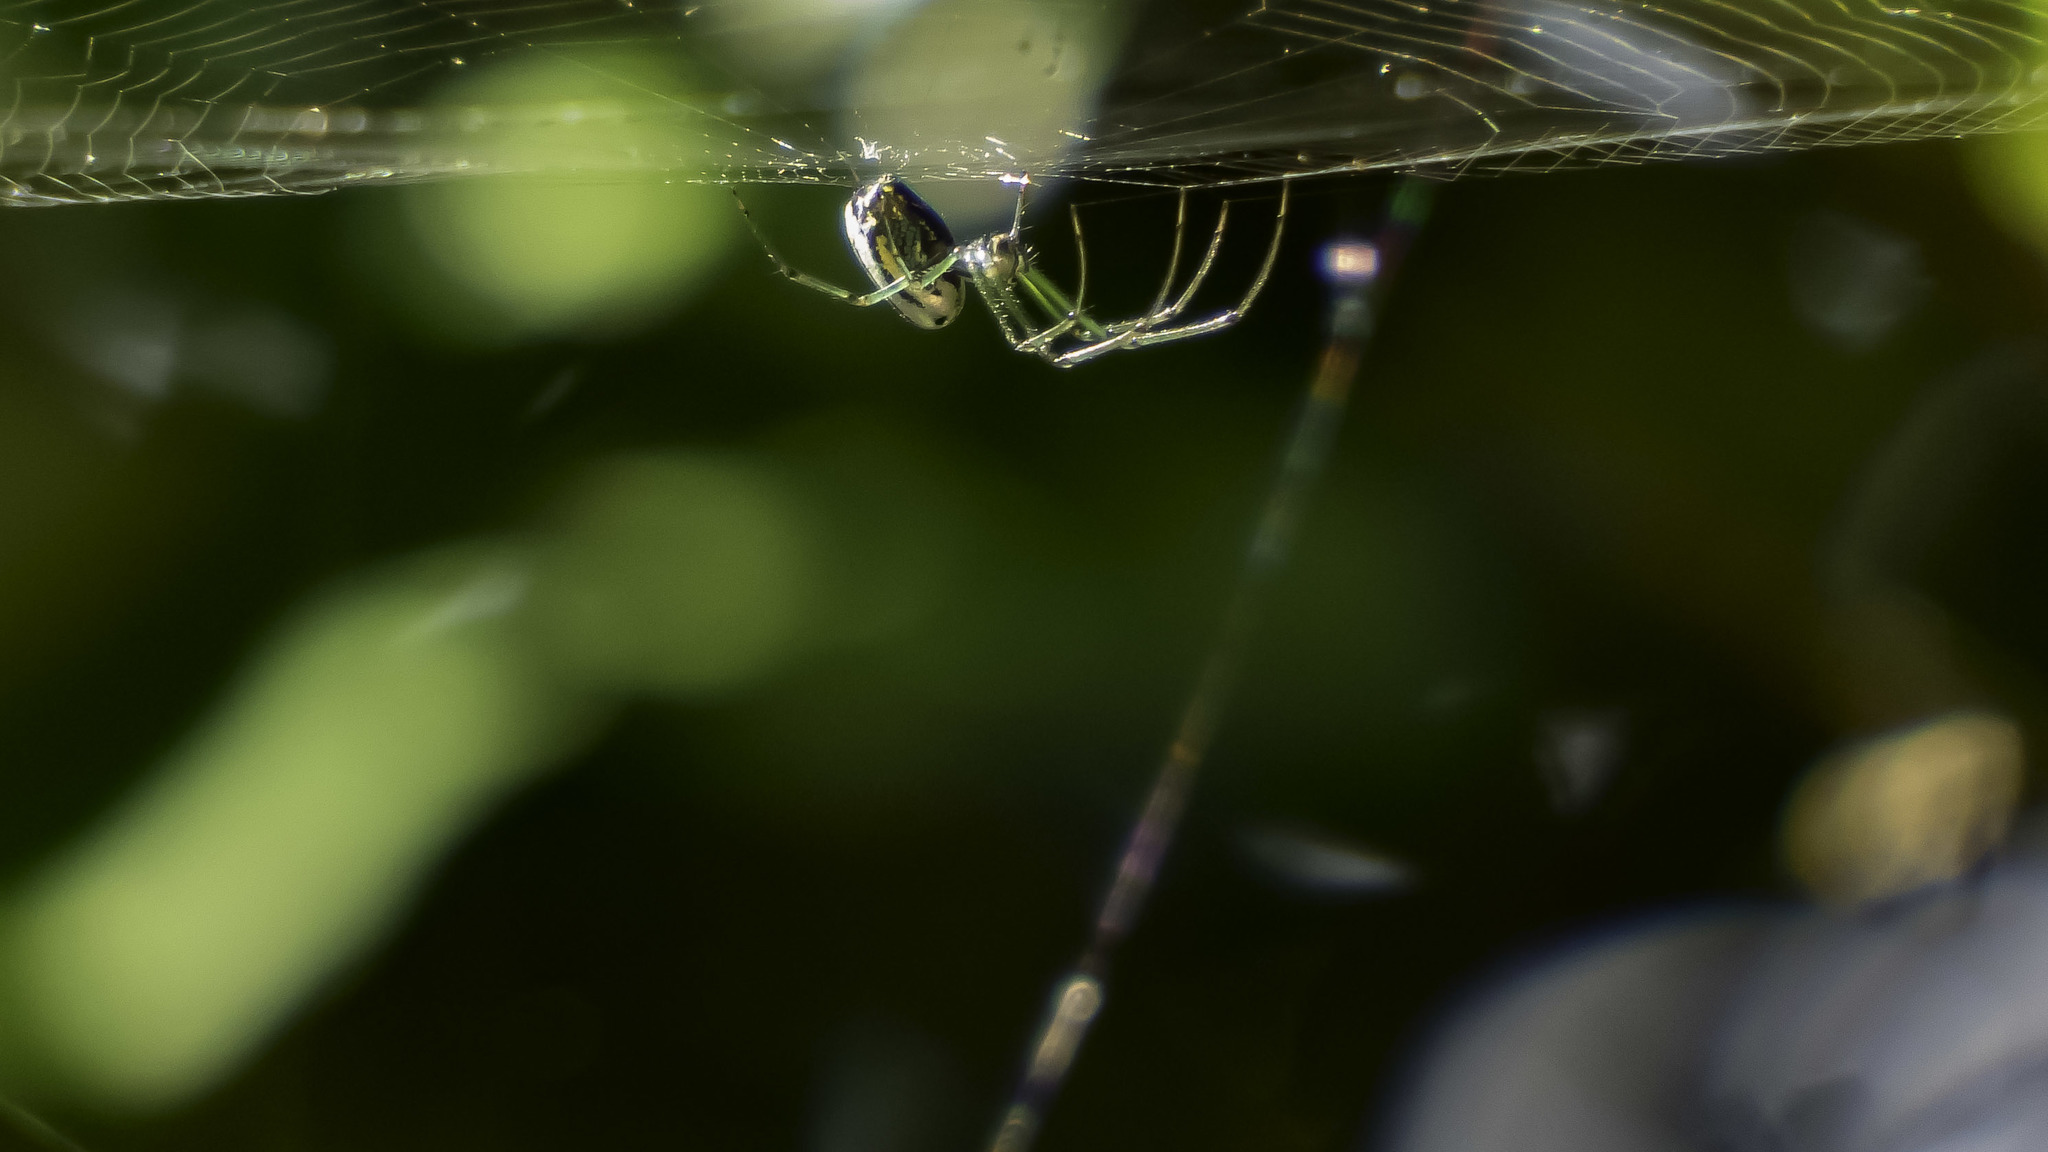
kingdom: Animalia
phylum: Arthropoda
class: Arachnida
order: Araneae
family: Tetragnathidae
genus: Leucauge
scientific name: Leucauge venusta
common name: Longjawed orb weavers
